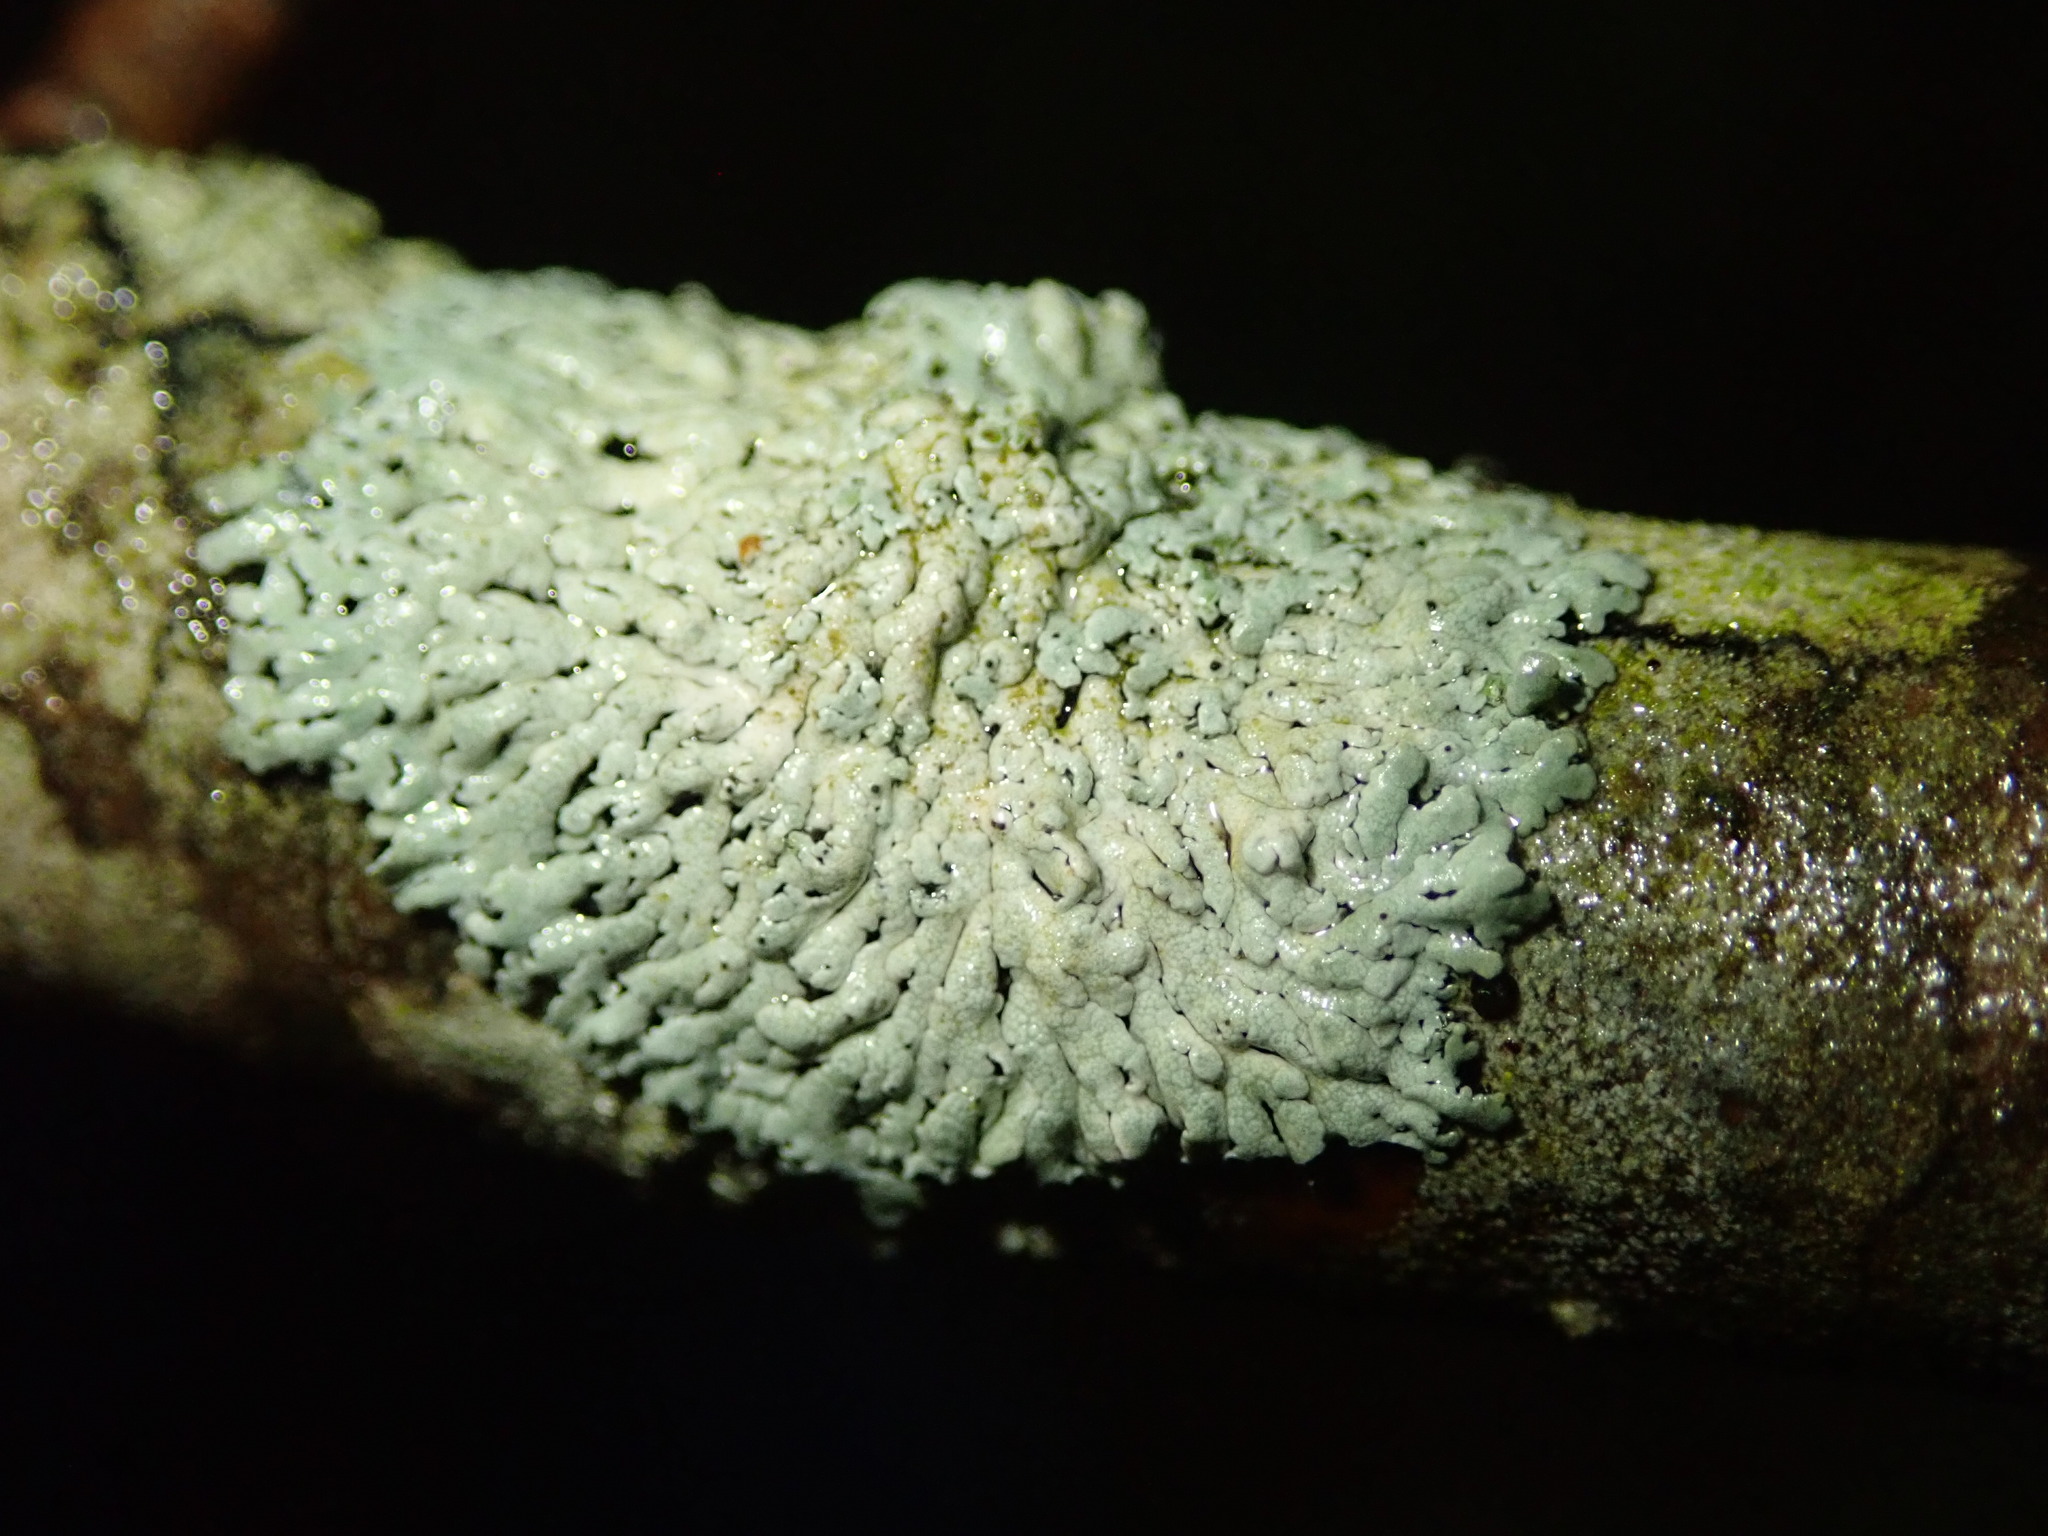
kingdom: Fungi
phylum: Ascomycota
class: Lecanoromycetes
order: Caliciales
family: Physciaceae
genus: Physcia
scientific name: Physcia pumilior
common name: Lesser gray legs
